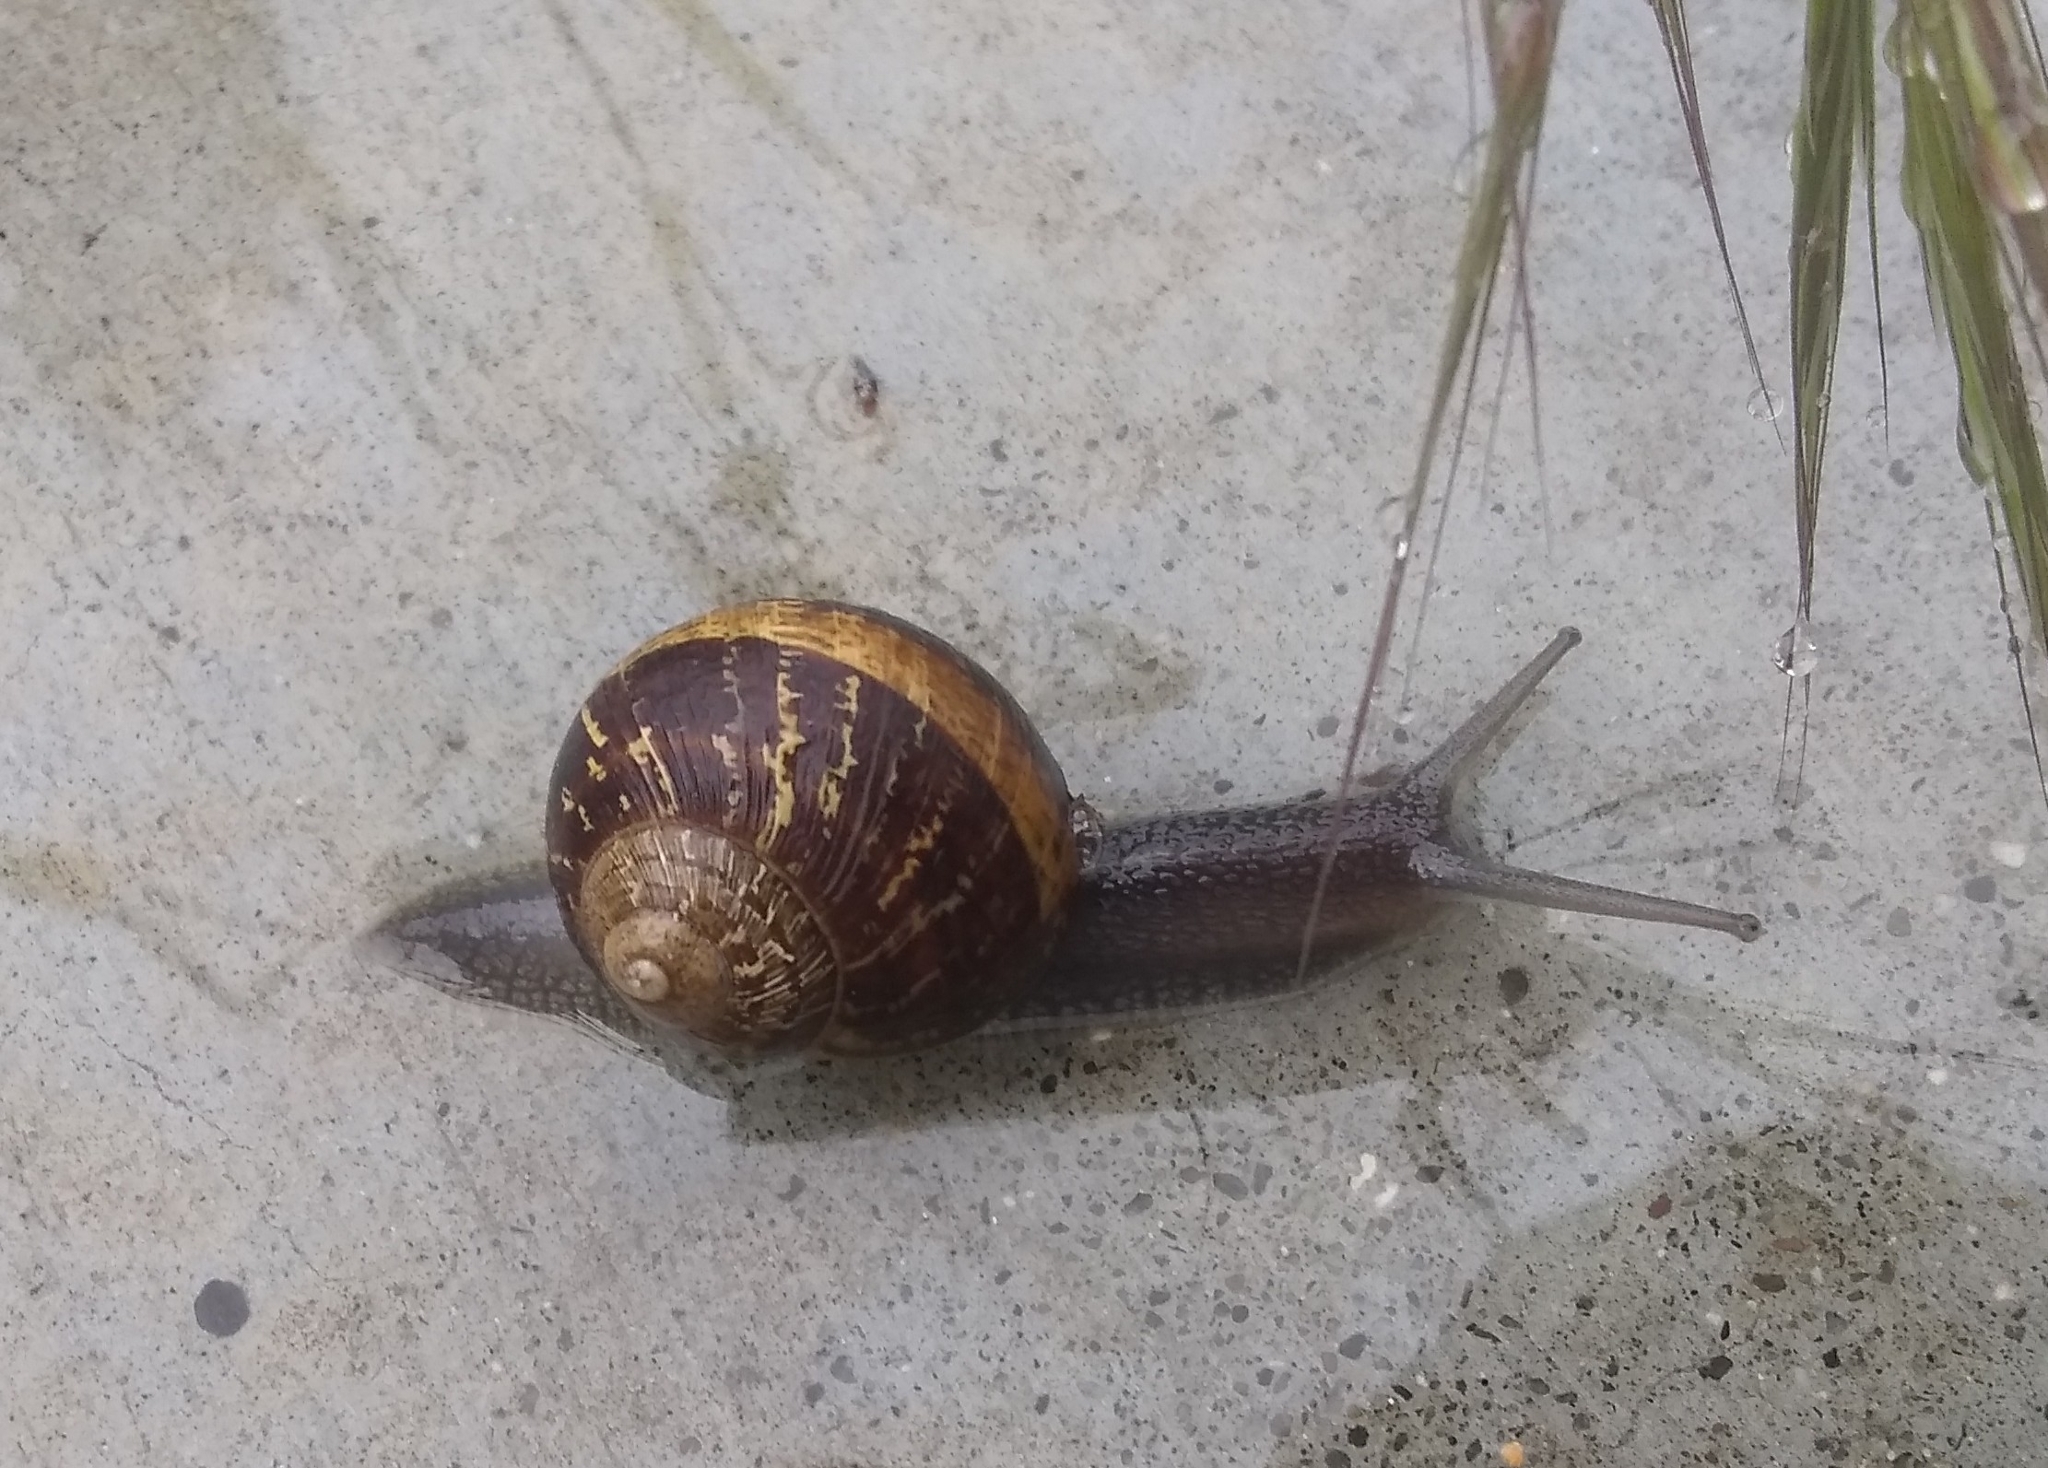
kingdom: Animalia
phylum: Mollusca
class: Gastropoda
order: Stylommatophora
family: Helicidae
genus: Cornu
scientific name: Cornu aspersum
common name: Brown garden snail
